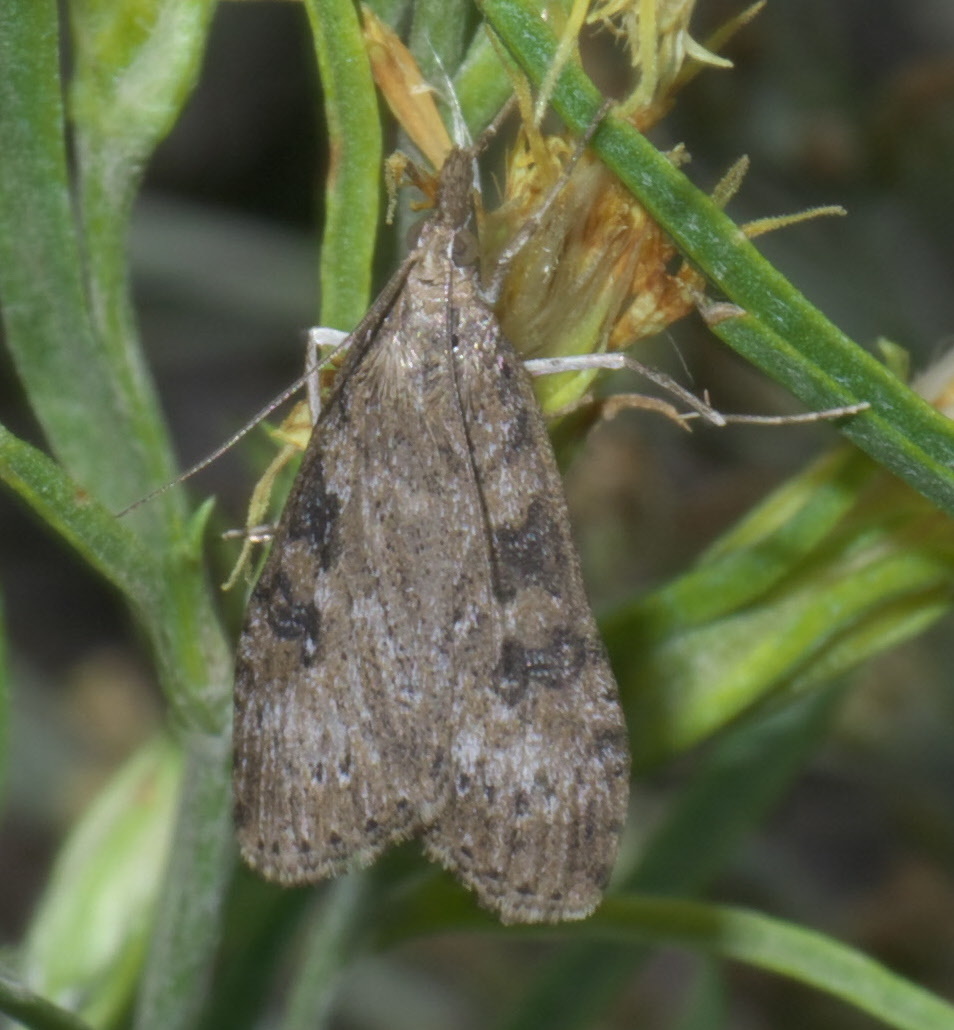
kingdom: Animalia
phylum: Arthropoda
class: Insecta
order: Lepidoptera
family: Crambidae
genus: Nomophila
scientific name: Nomophila nearctica
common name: American rush veneer
